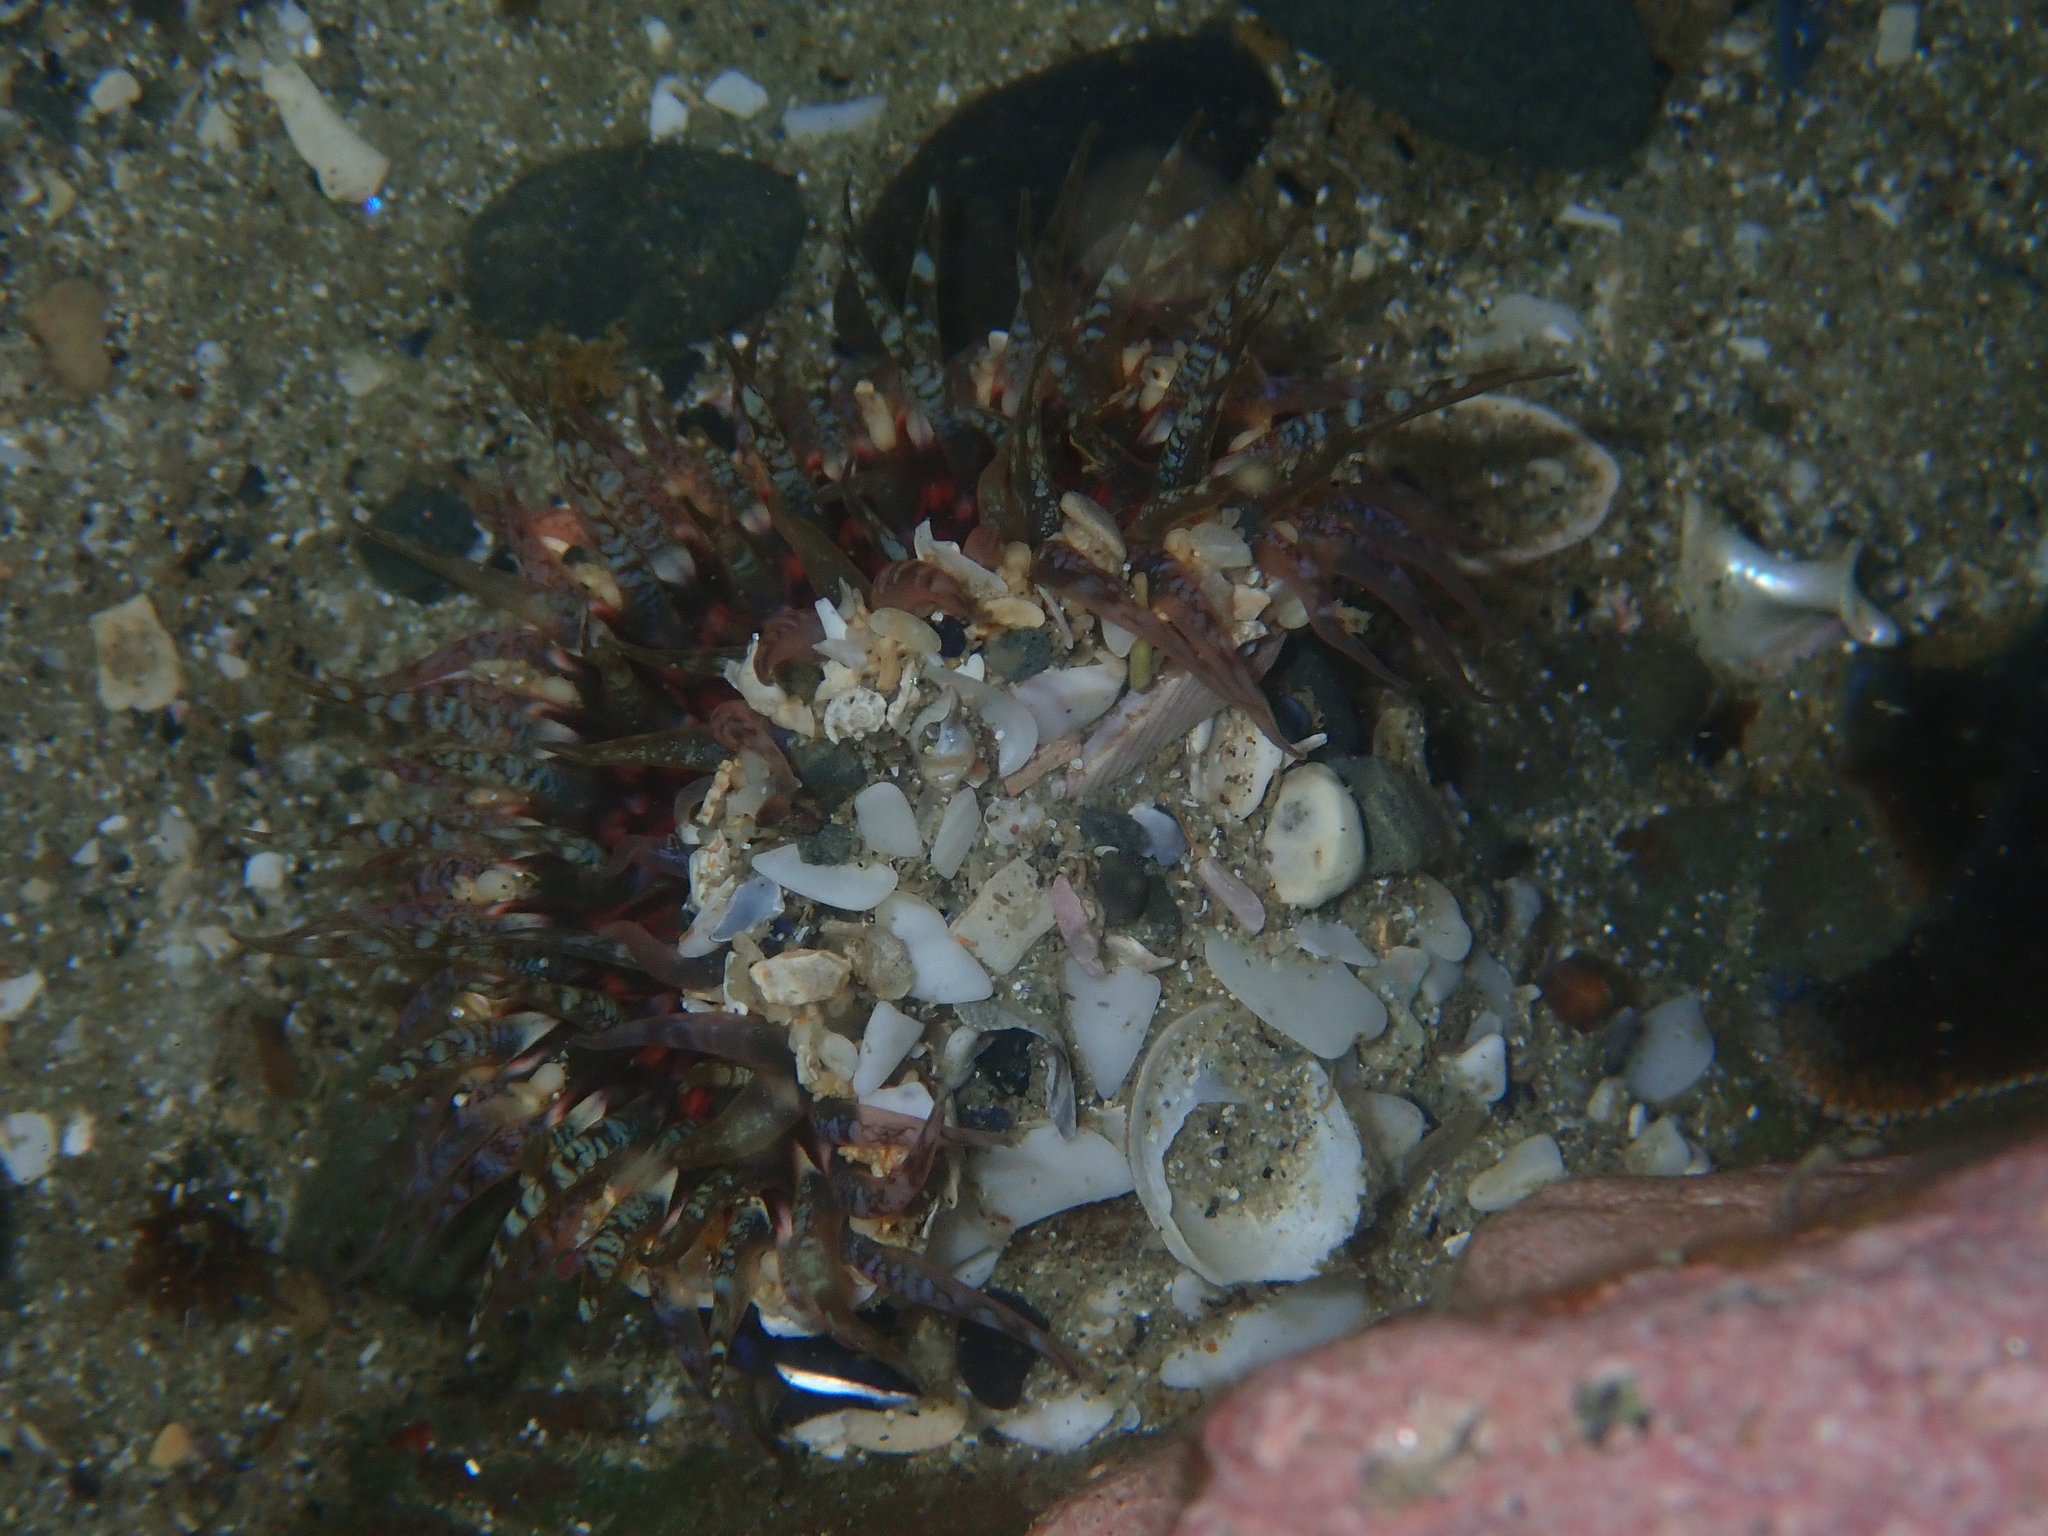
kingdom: Animalia
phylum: Cnidaria
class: Anthozoa
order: Actiniaria
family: Actiniidae
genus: Oulactis
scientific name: Oulactis muscosa
